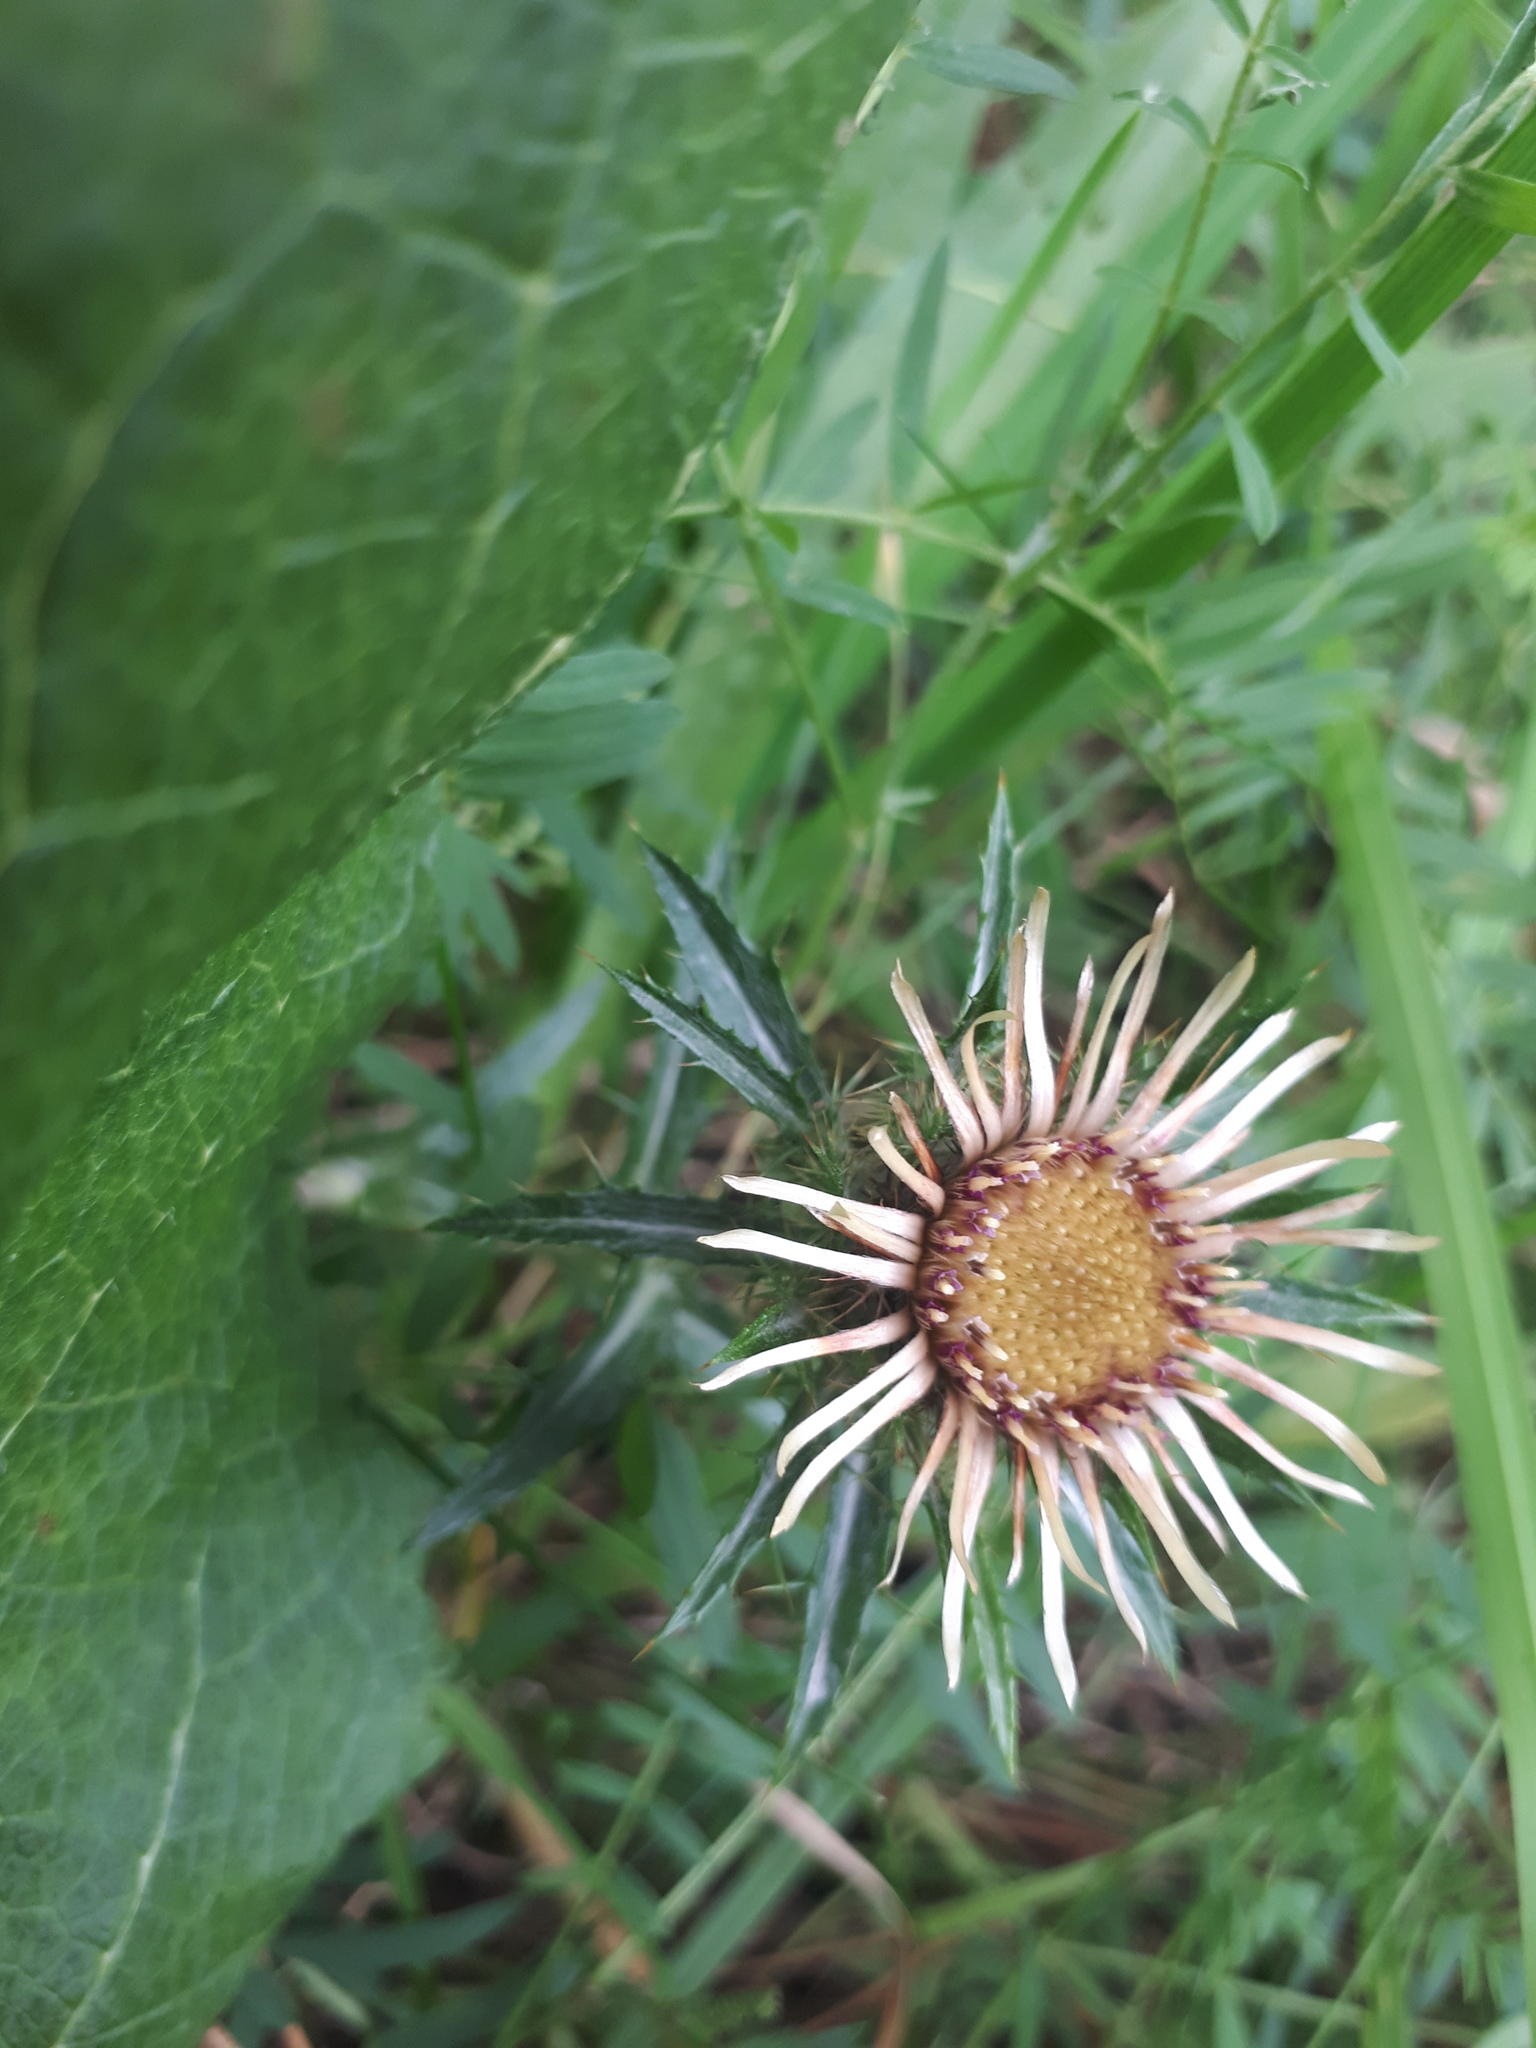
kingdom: Plantae
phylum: Tracheophyta
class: Magnoliopsida
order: Asterales
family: Asteraceae
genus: Carlina
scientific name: Carlina vulgaris
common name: Carline thistle
